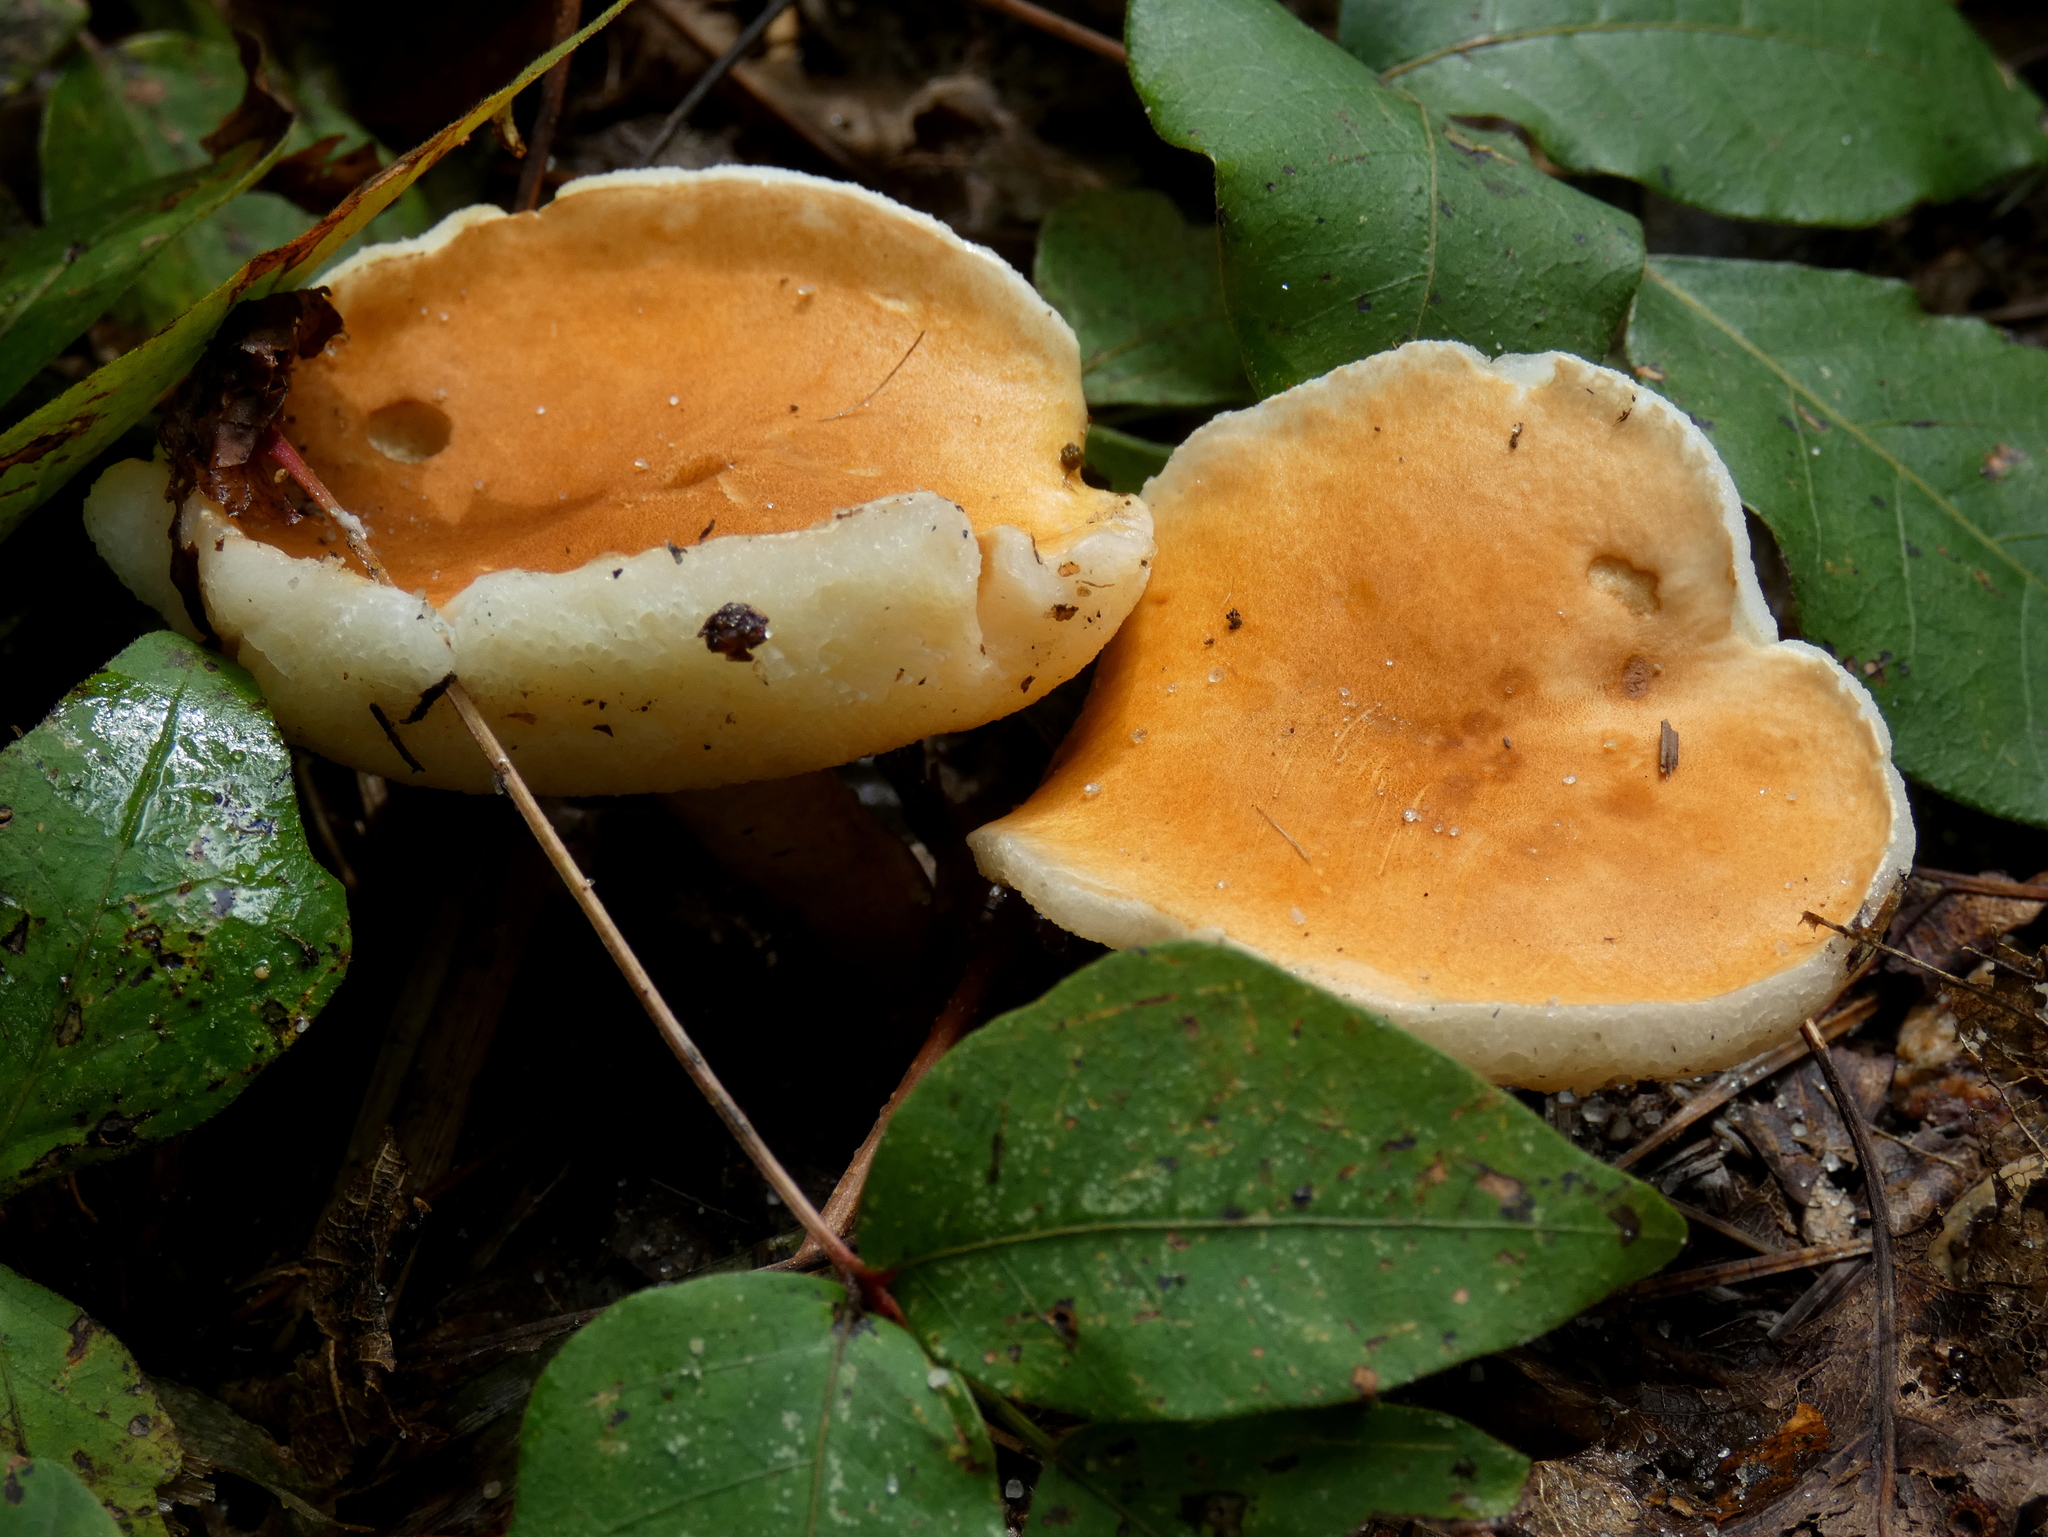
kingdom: Fungi
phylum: Basidiomycota
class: Agaricomycetes
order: Boletales
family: Gyroporaceae
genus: Gyroporus
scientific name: Gyroporus castaneus
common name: Chestnut bolete
